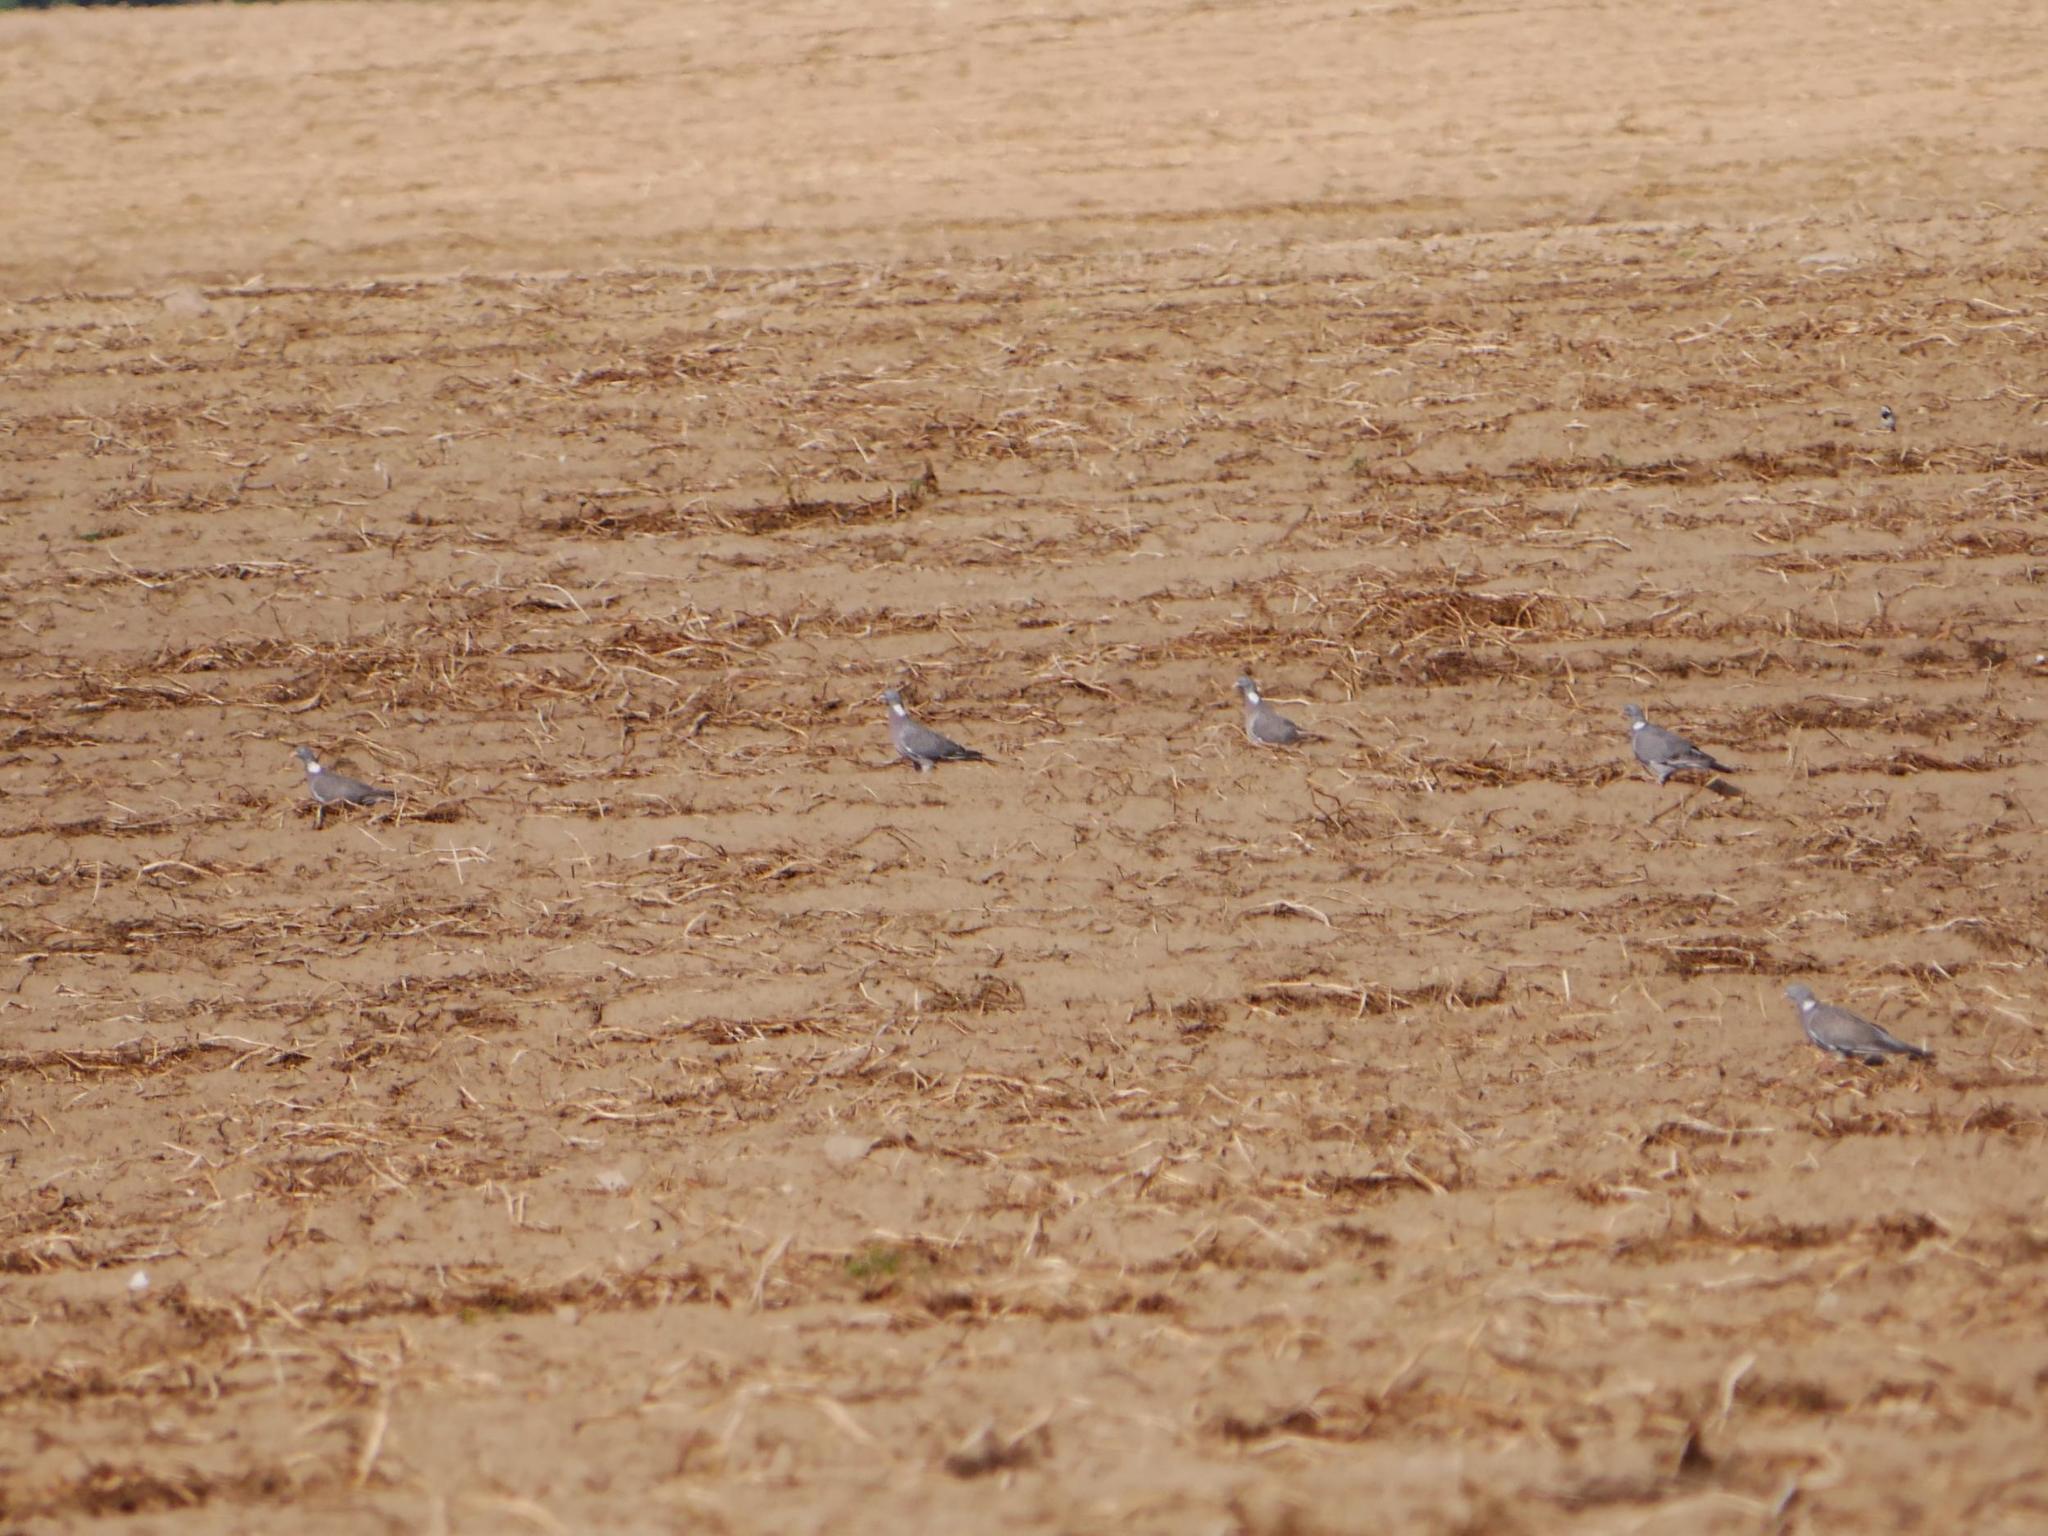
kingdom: Animalia
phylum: Chordata
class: Aves
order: Columbiformes
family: Columbidae
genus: Columba
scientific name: Columba palumbus
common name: Common wood pigeon
